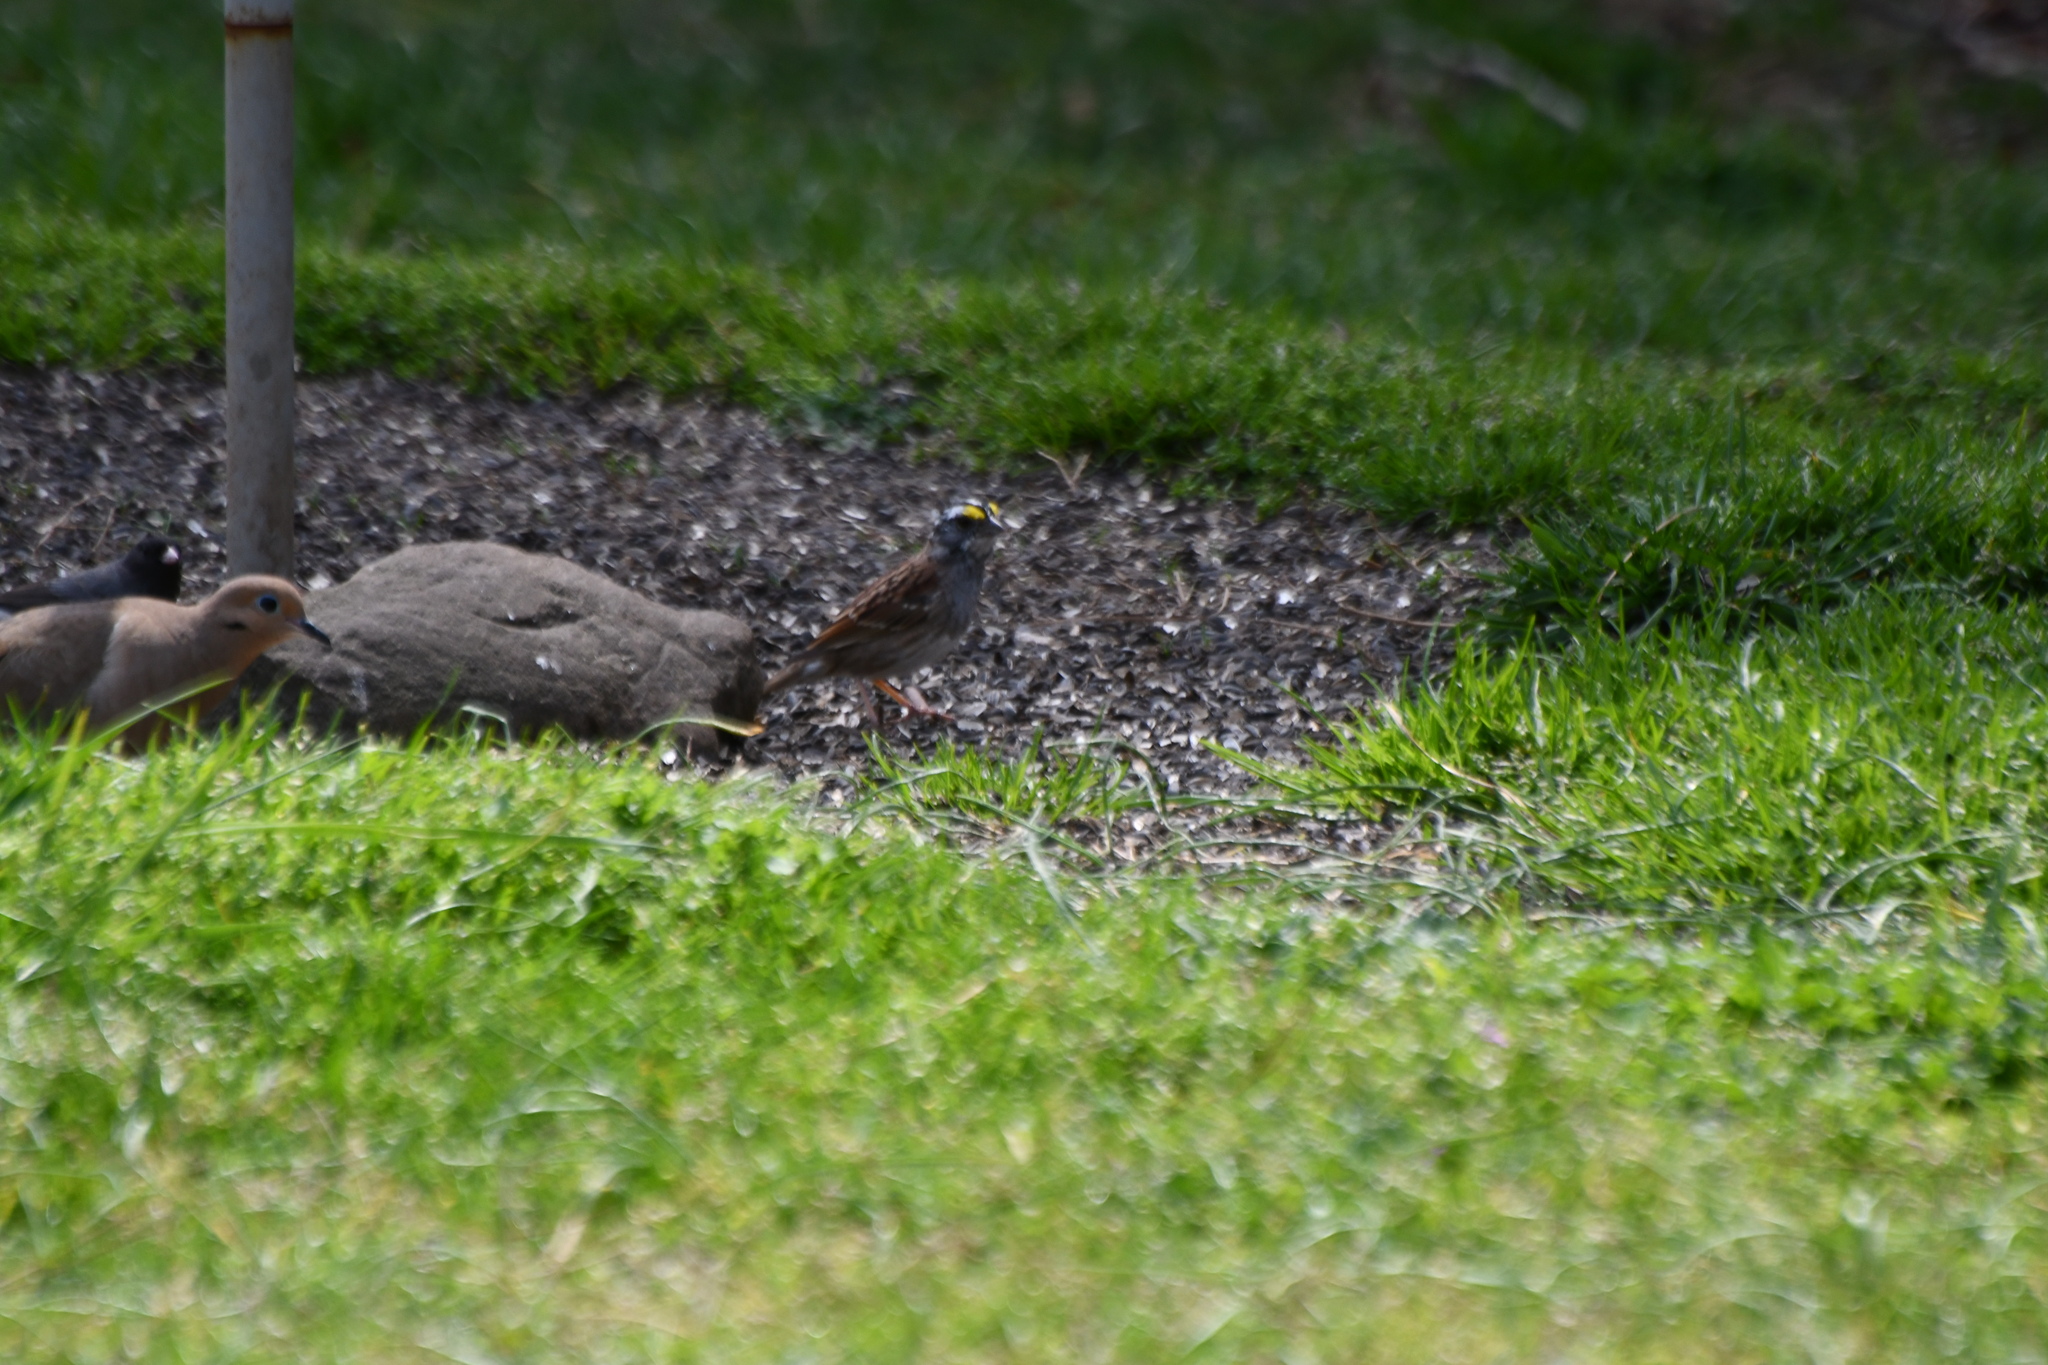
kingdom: Animalia
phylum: Chordata
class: Aves
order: Passeriformes
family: Passerellidae
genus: Junco
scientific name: Junco hyemalis
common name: Dark-eyed junco
